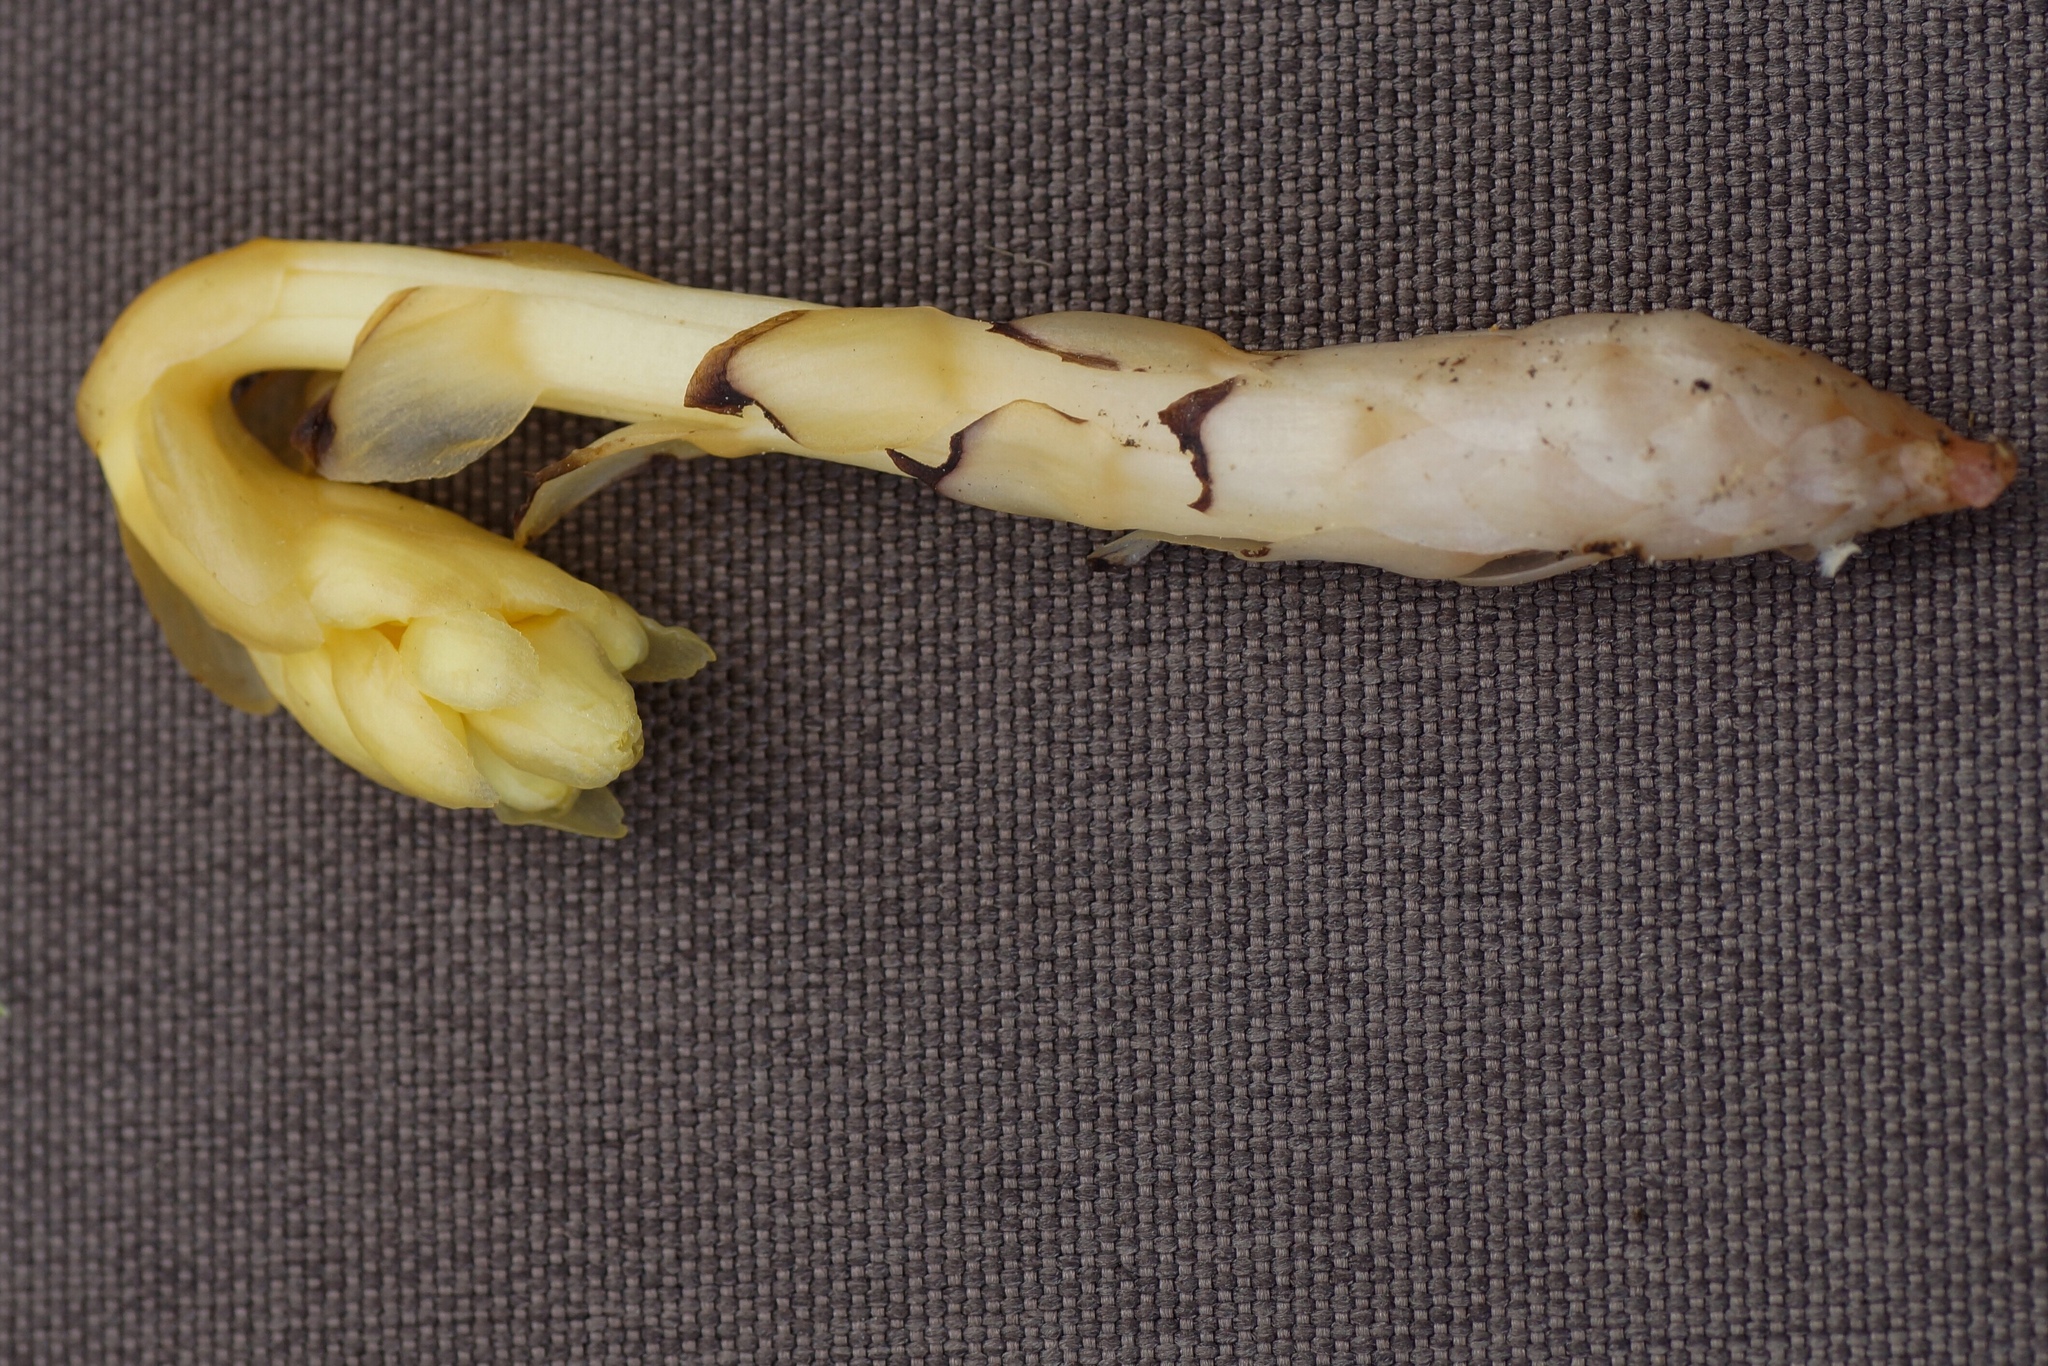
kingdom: Plantae
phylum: Tracheophyta
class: Magnoliopsida
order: Ericales
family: Ericaceae
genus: Hypopitys
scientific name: Hypopitys monotropa
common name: Yellow bird's-nest
